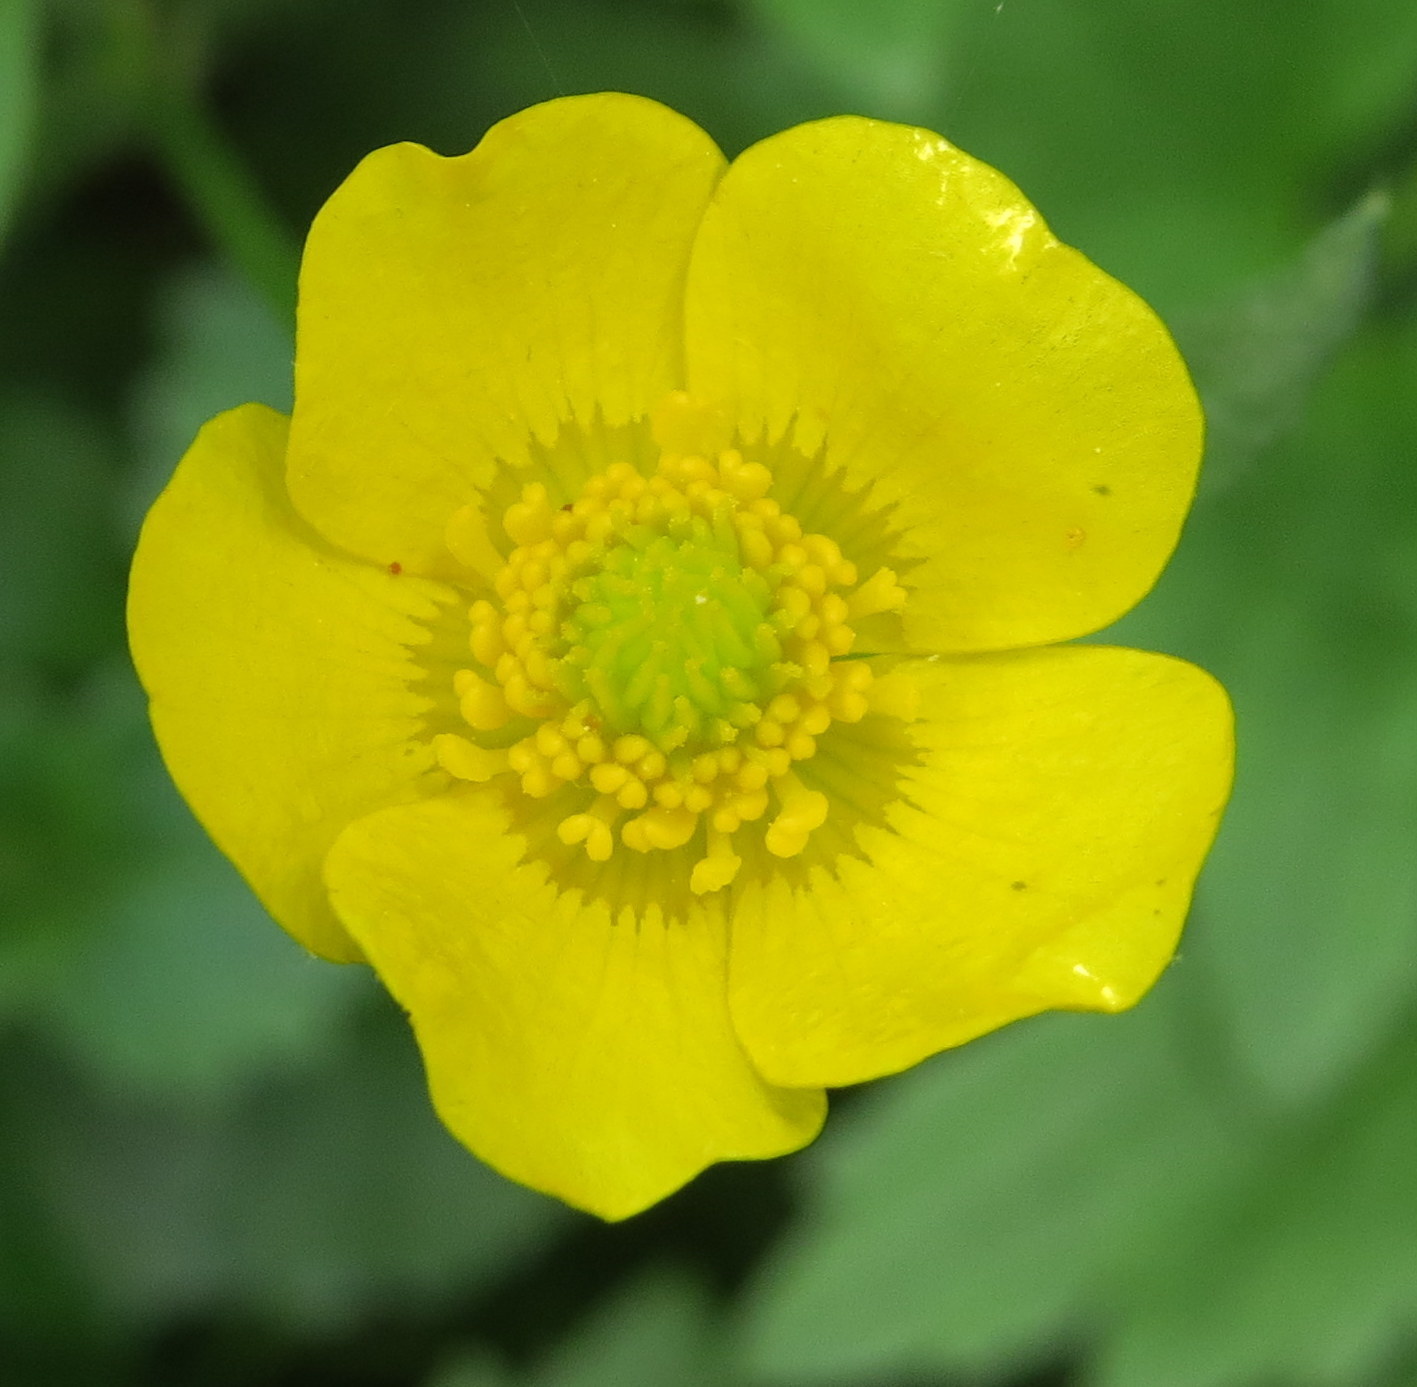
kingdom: Plantae
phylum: Tracheophyta
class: Magnoliopsida
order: Ranunculales
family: Ranunculaceae
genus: Ranunculus
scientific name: Ranunculus hispidus
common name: Bristly buttercup
